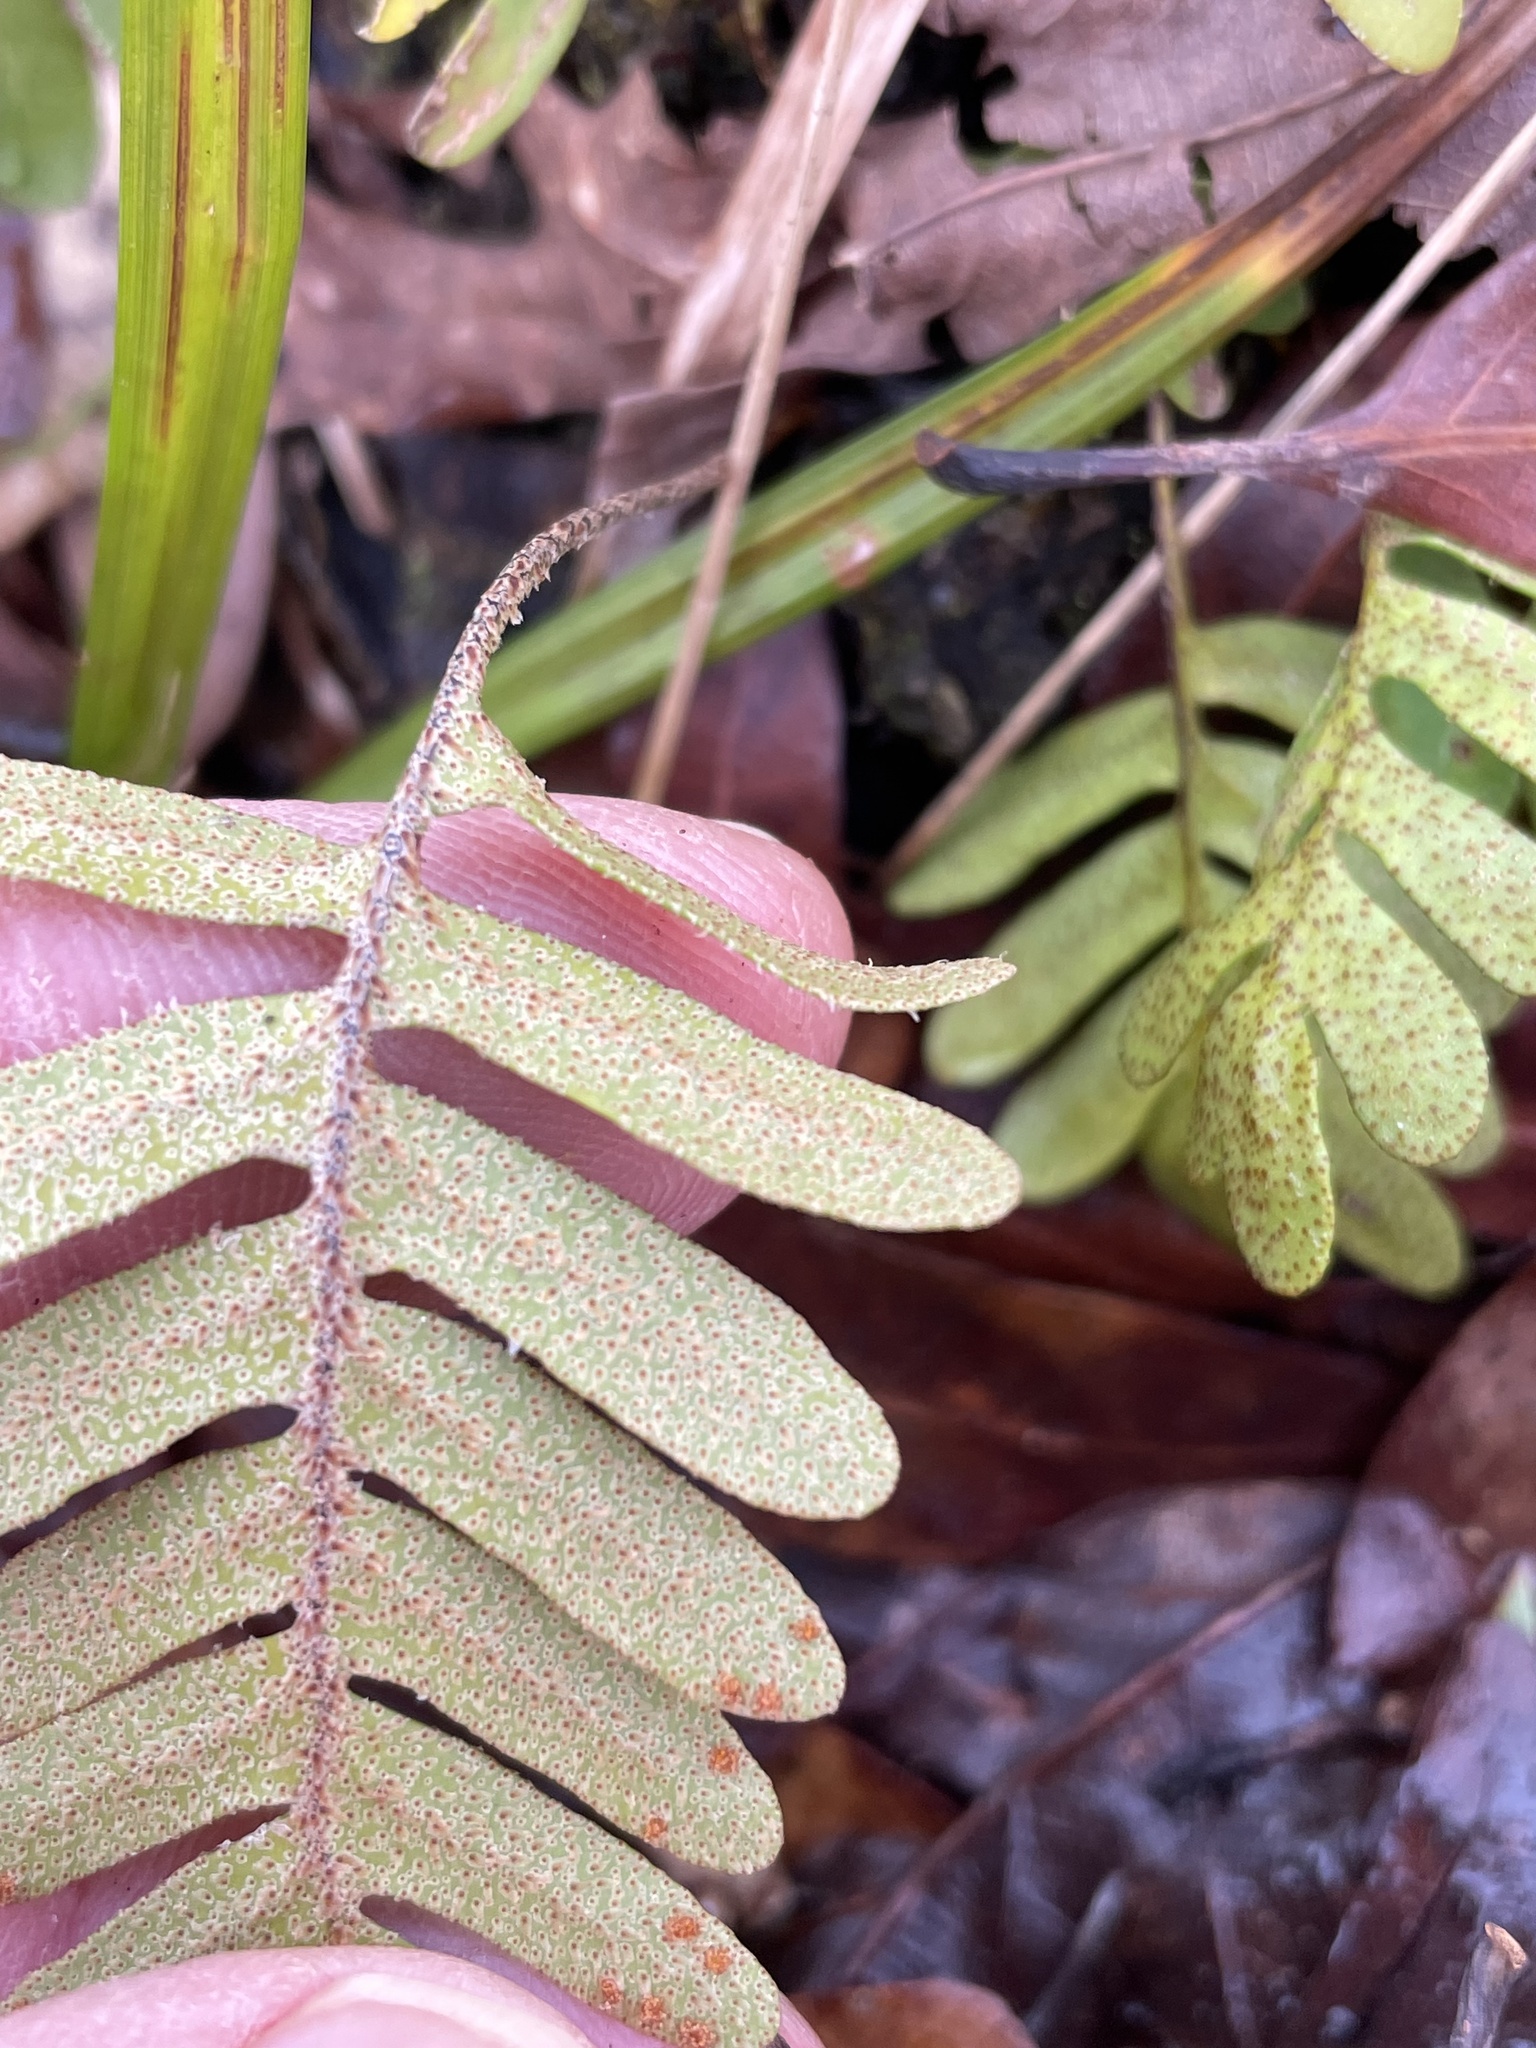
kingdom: Plantae
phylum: Tracheophyta
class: Polypodiopsida
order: Polypodiales
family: Polypodiaceae
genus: Pleopeltis
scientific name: Pleopeltis michauxiana
